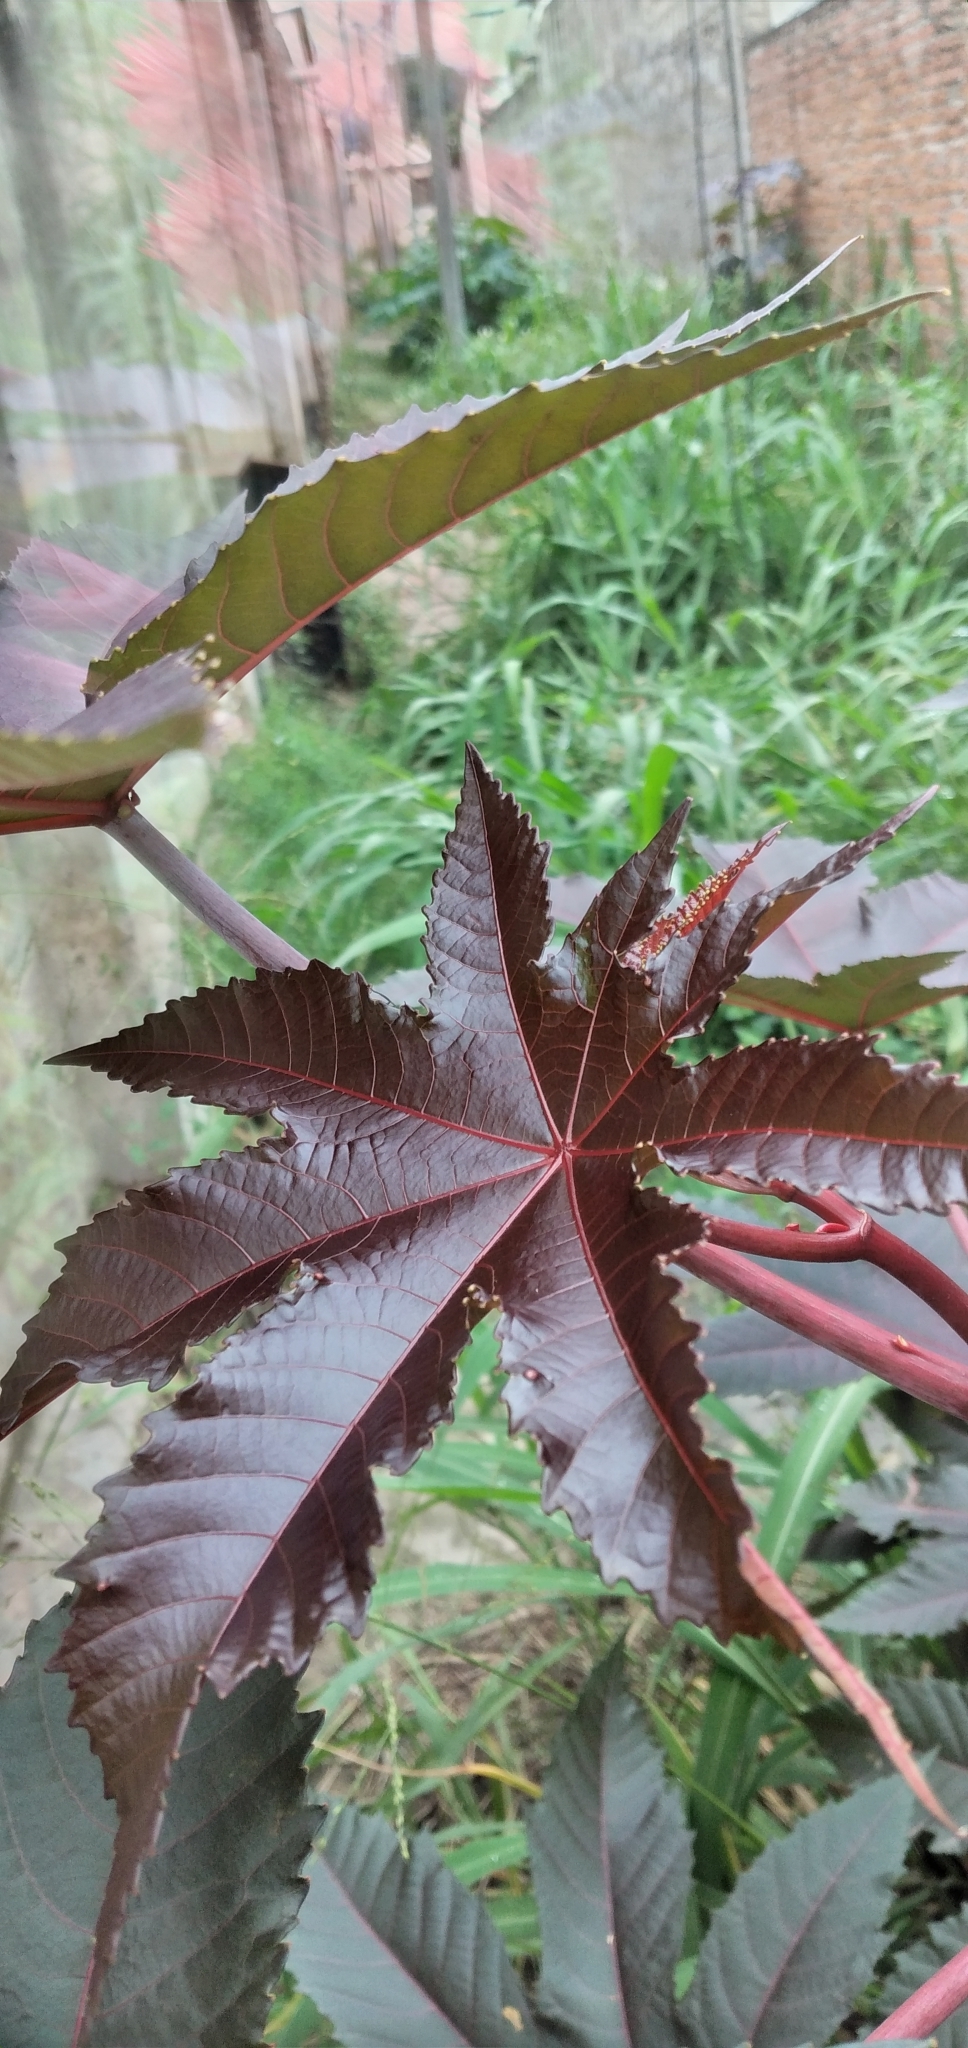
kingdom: Plantae
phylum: Tracheophyta
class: Magnoliopsida
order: Malpighiales
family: Euphorbiaceae
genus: Ricinus
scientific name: Ricinus communis
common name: Castor-oil-plant
